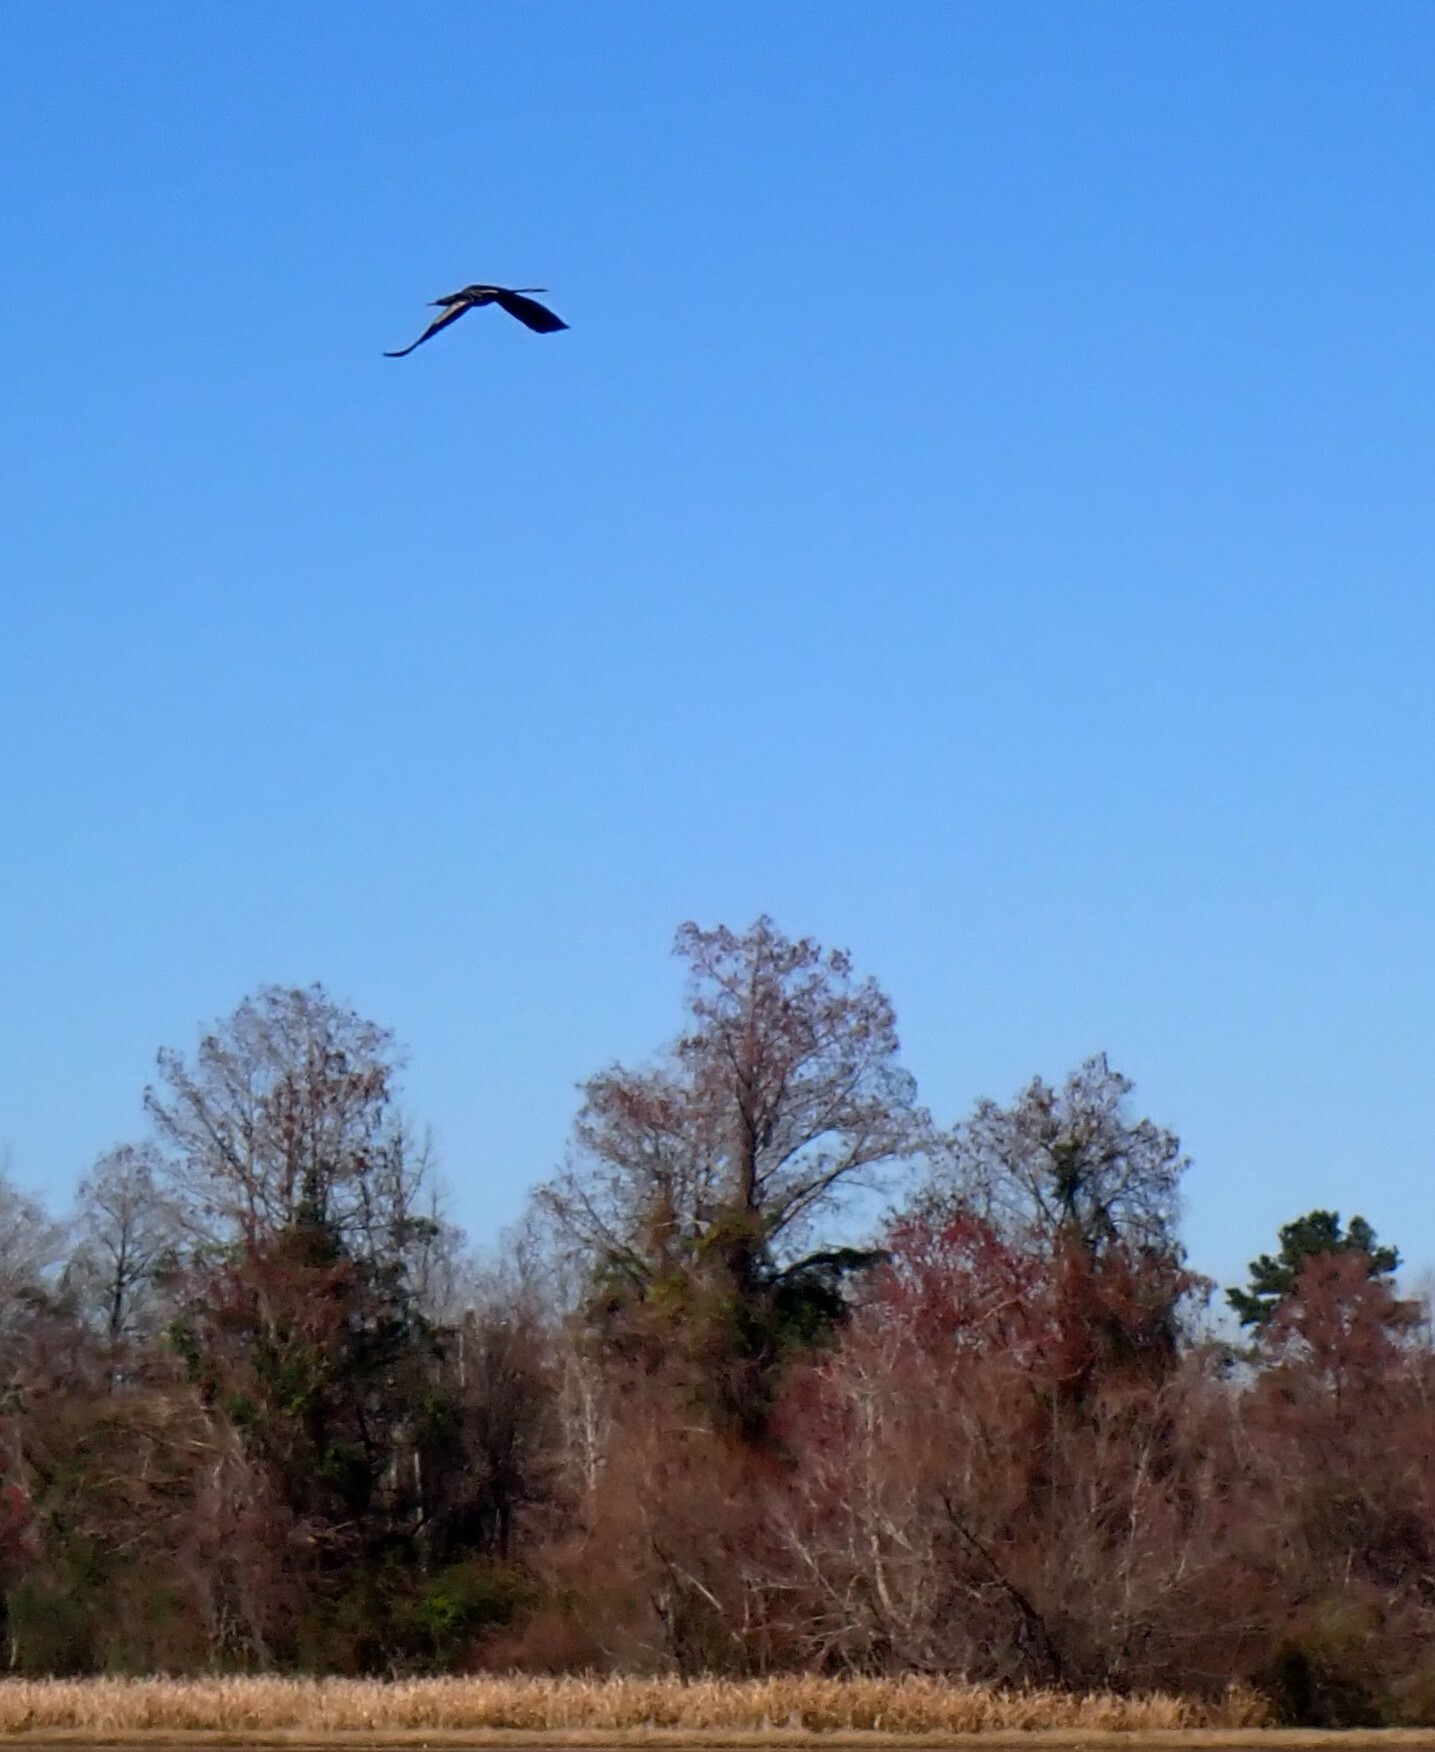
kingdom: Animalia
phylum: Chordata
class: Aves
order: Suliformes
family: Anhingidae
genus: Anhinga
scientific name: Anhinga anhinga
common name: Anhinga
